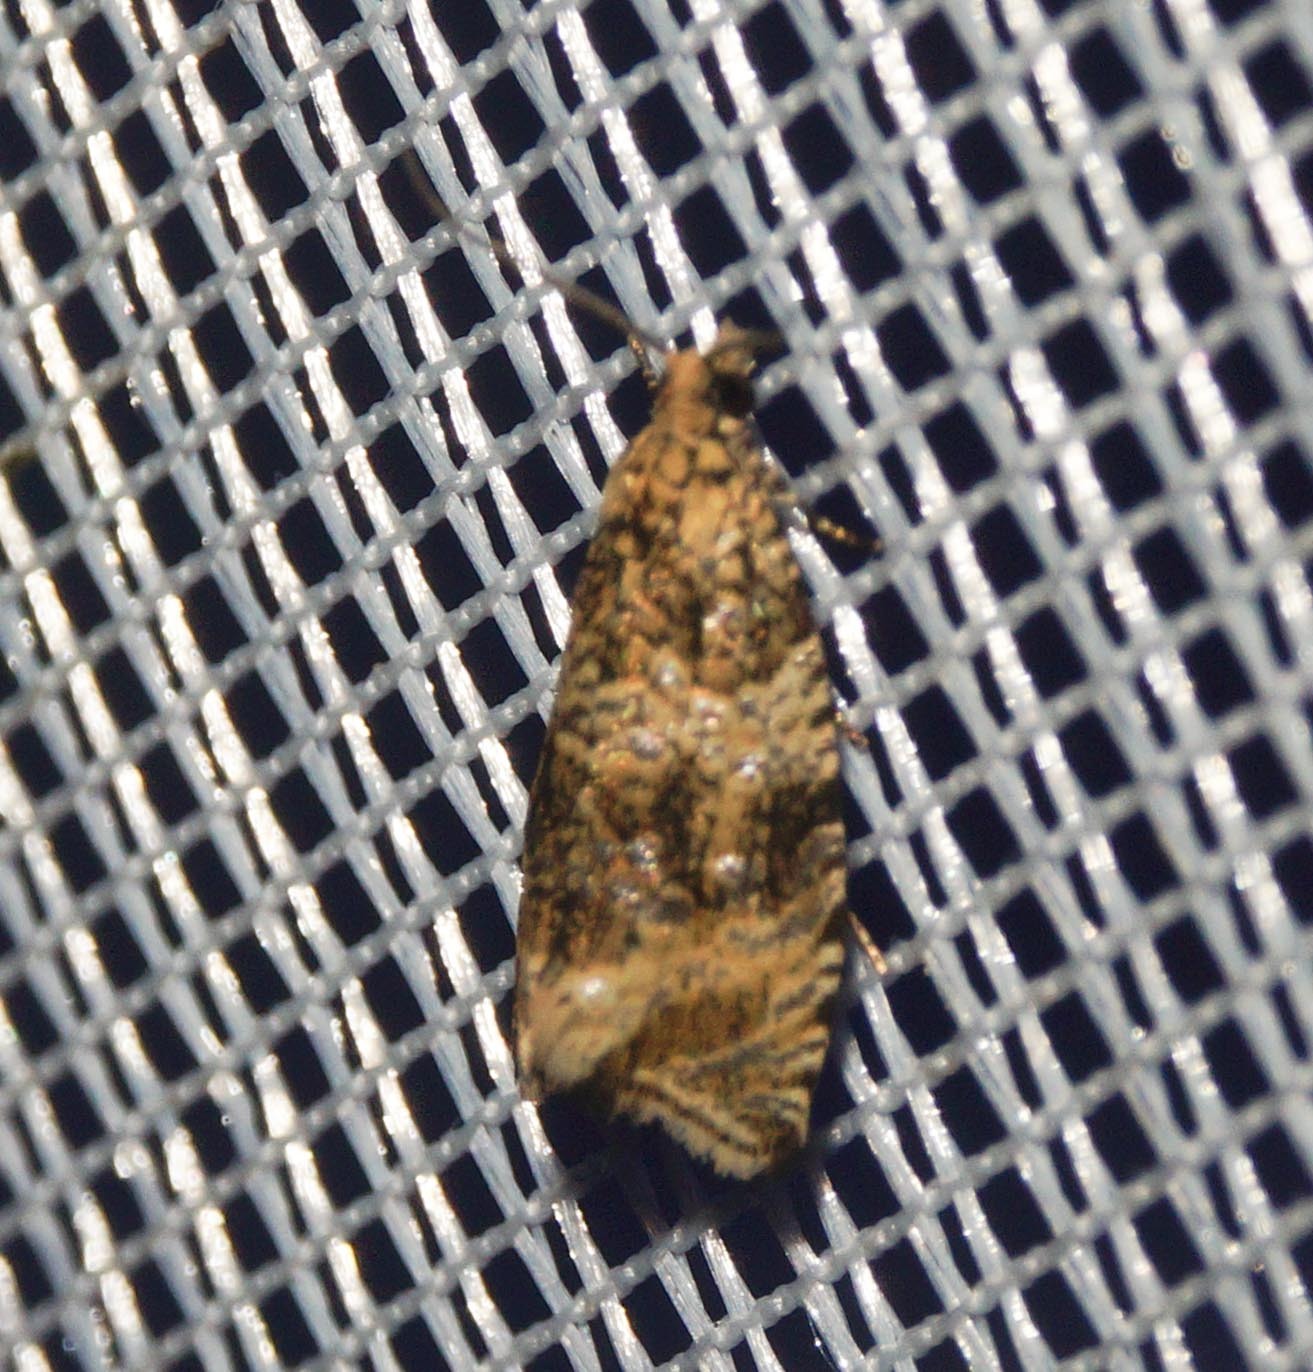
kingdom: Animalia
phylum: Arthropoda
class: Insecta
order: Lepidoptera
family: Tortricidae
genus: Syricoris
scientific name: Syricoris lacunana
